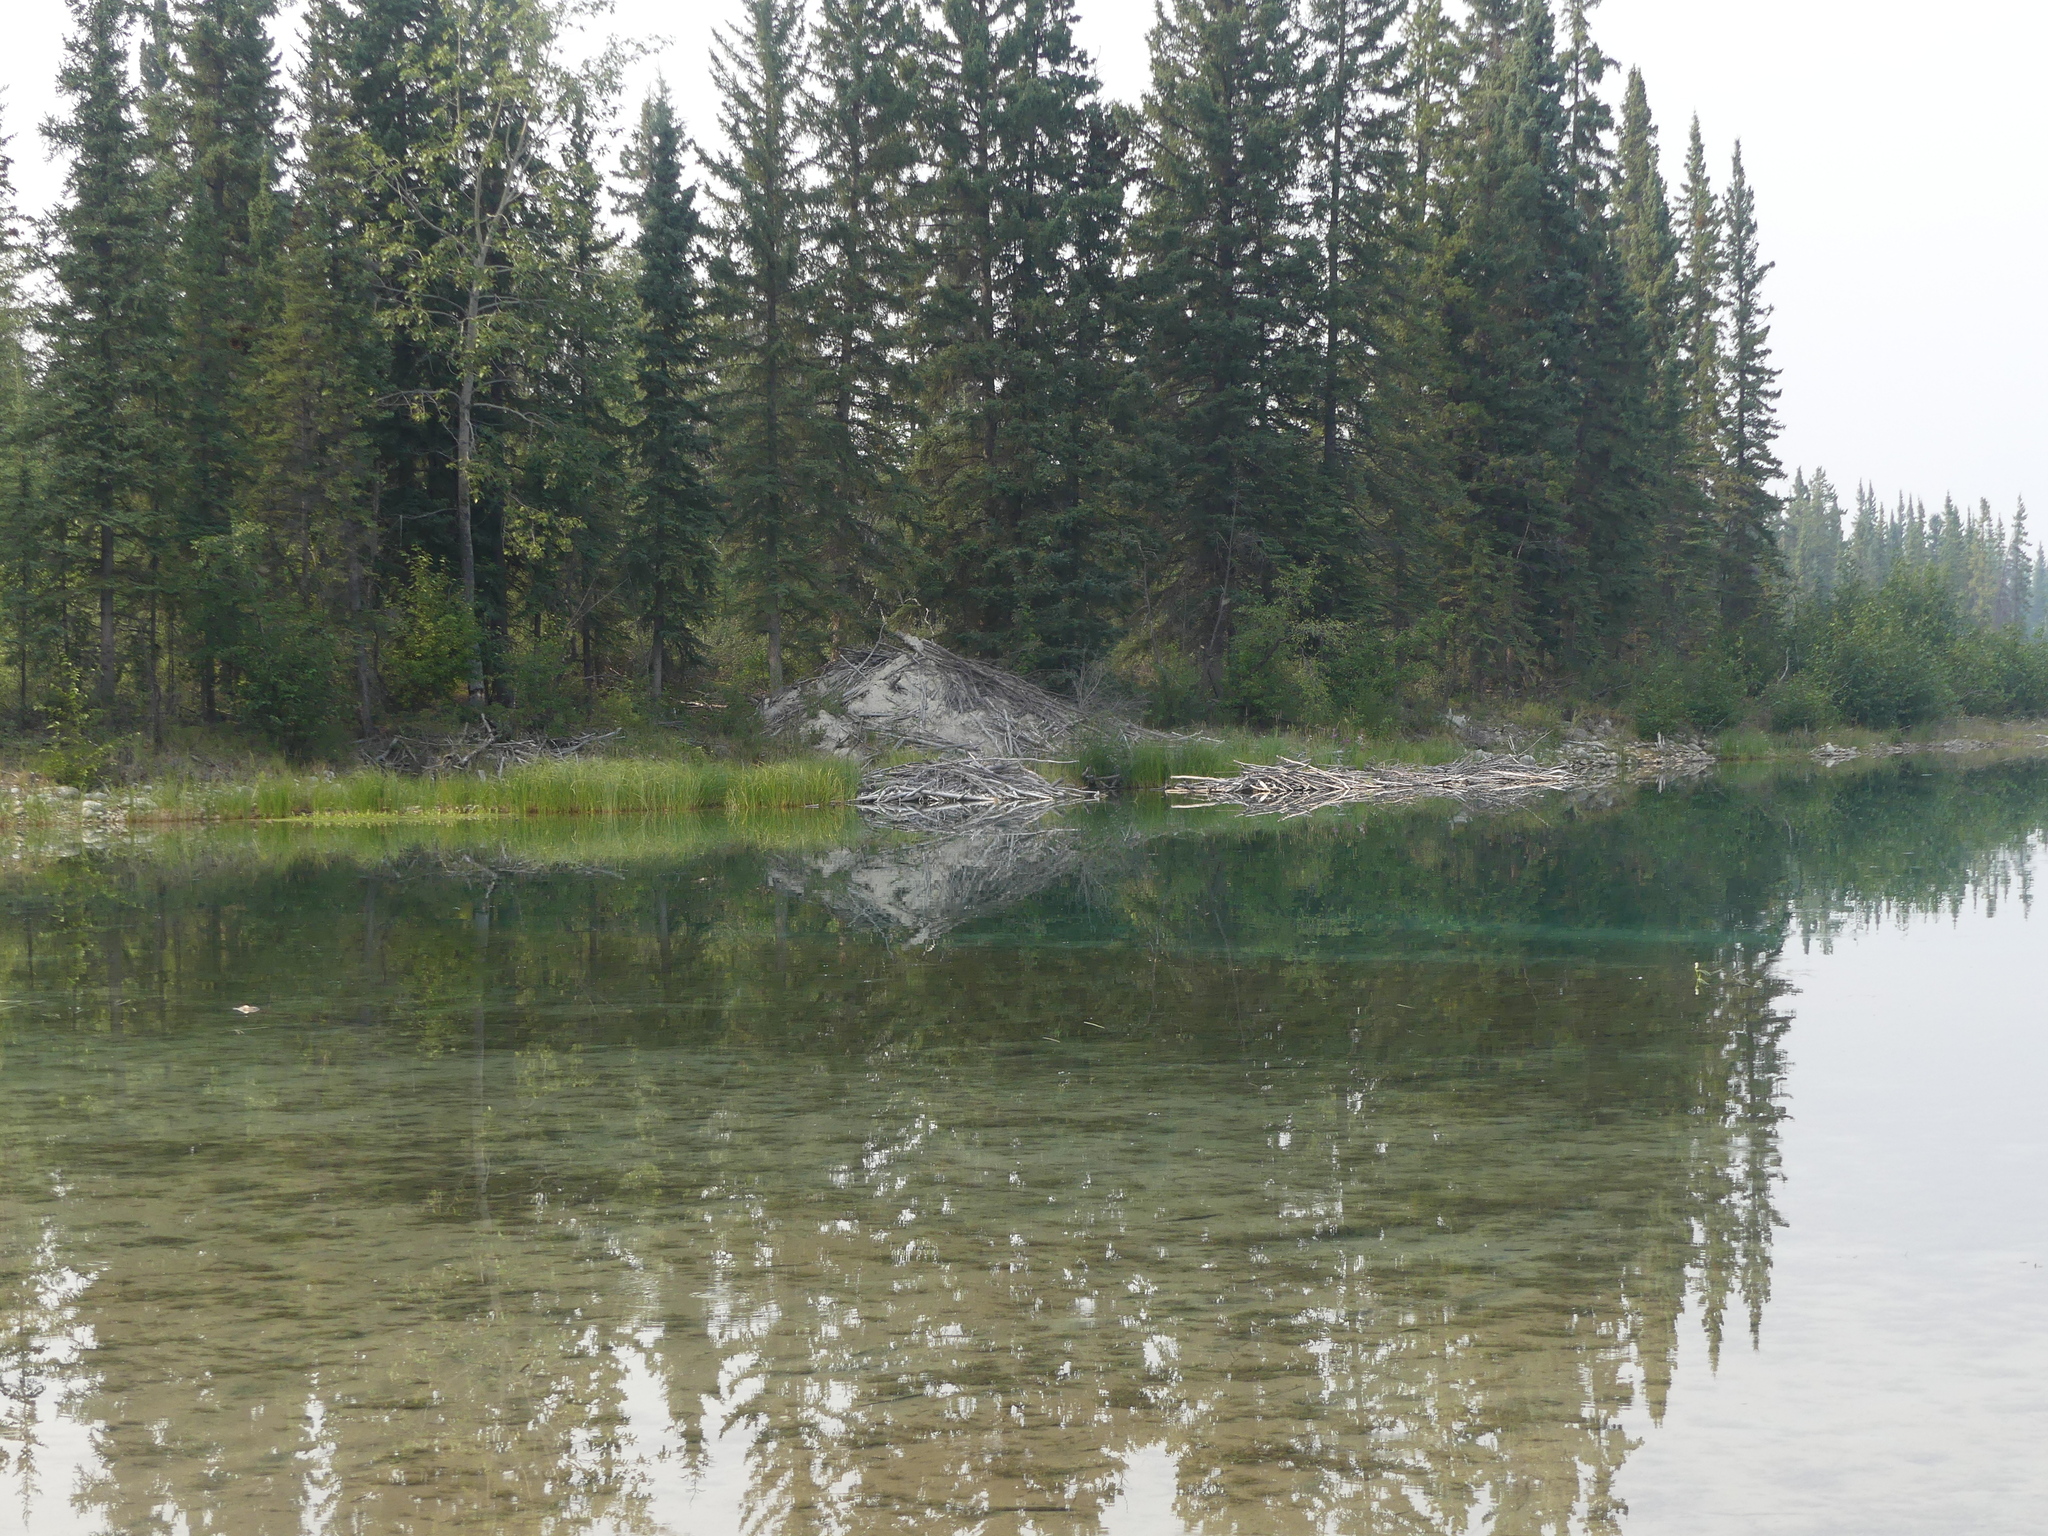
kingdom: Animalia
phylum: Chordata
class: Mammalia
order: Rodentia
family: Castoridae
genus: Castor
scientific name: Castor canadensis
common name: American beaver
